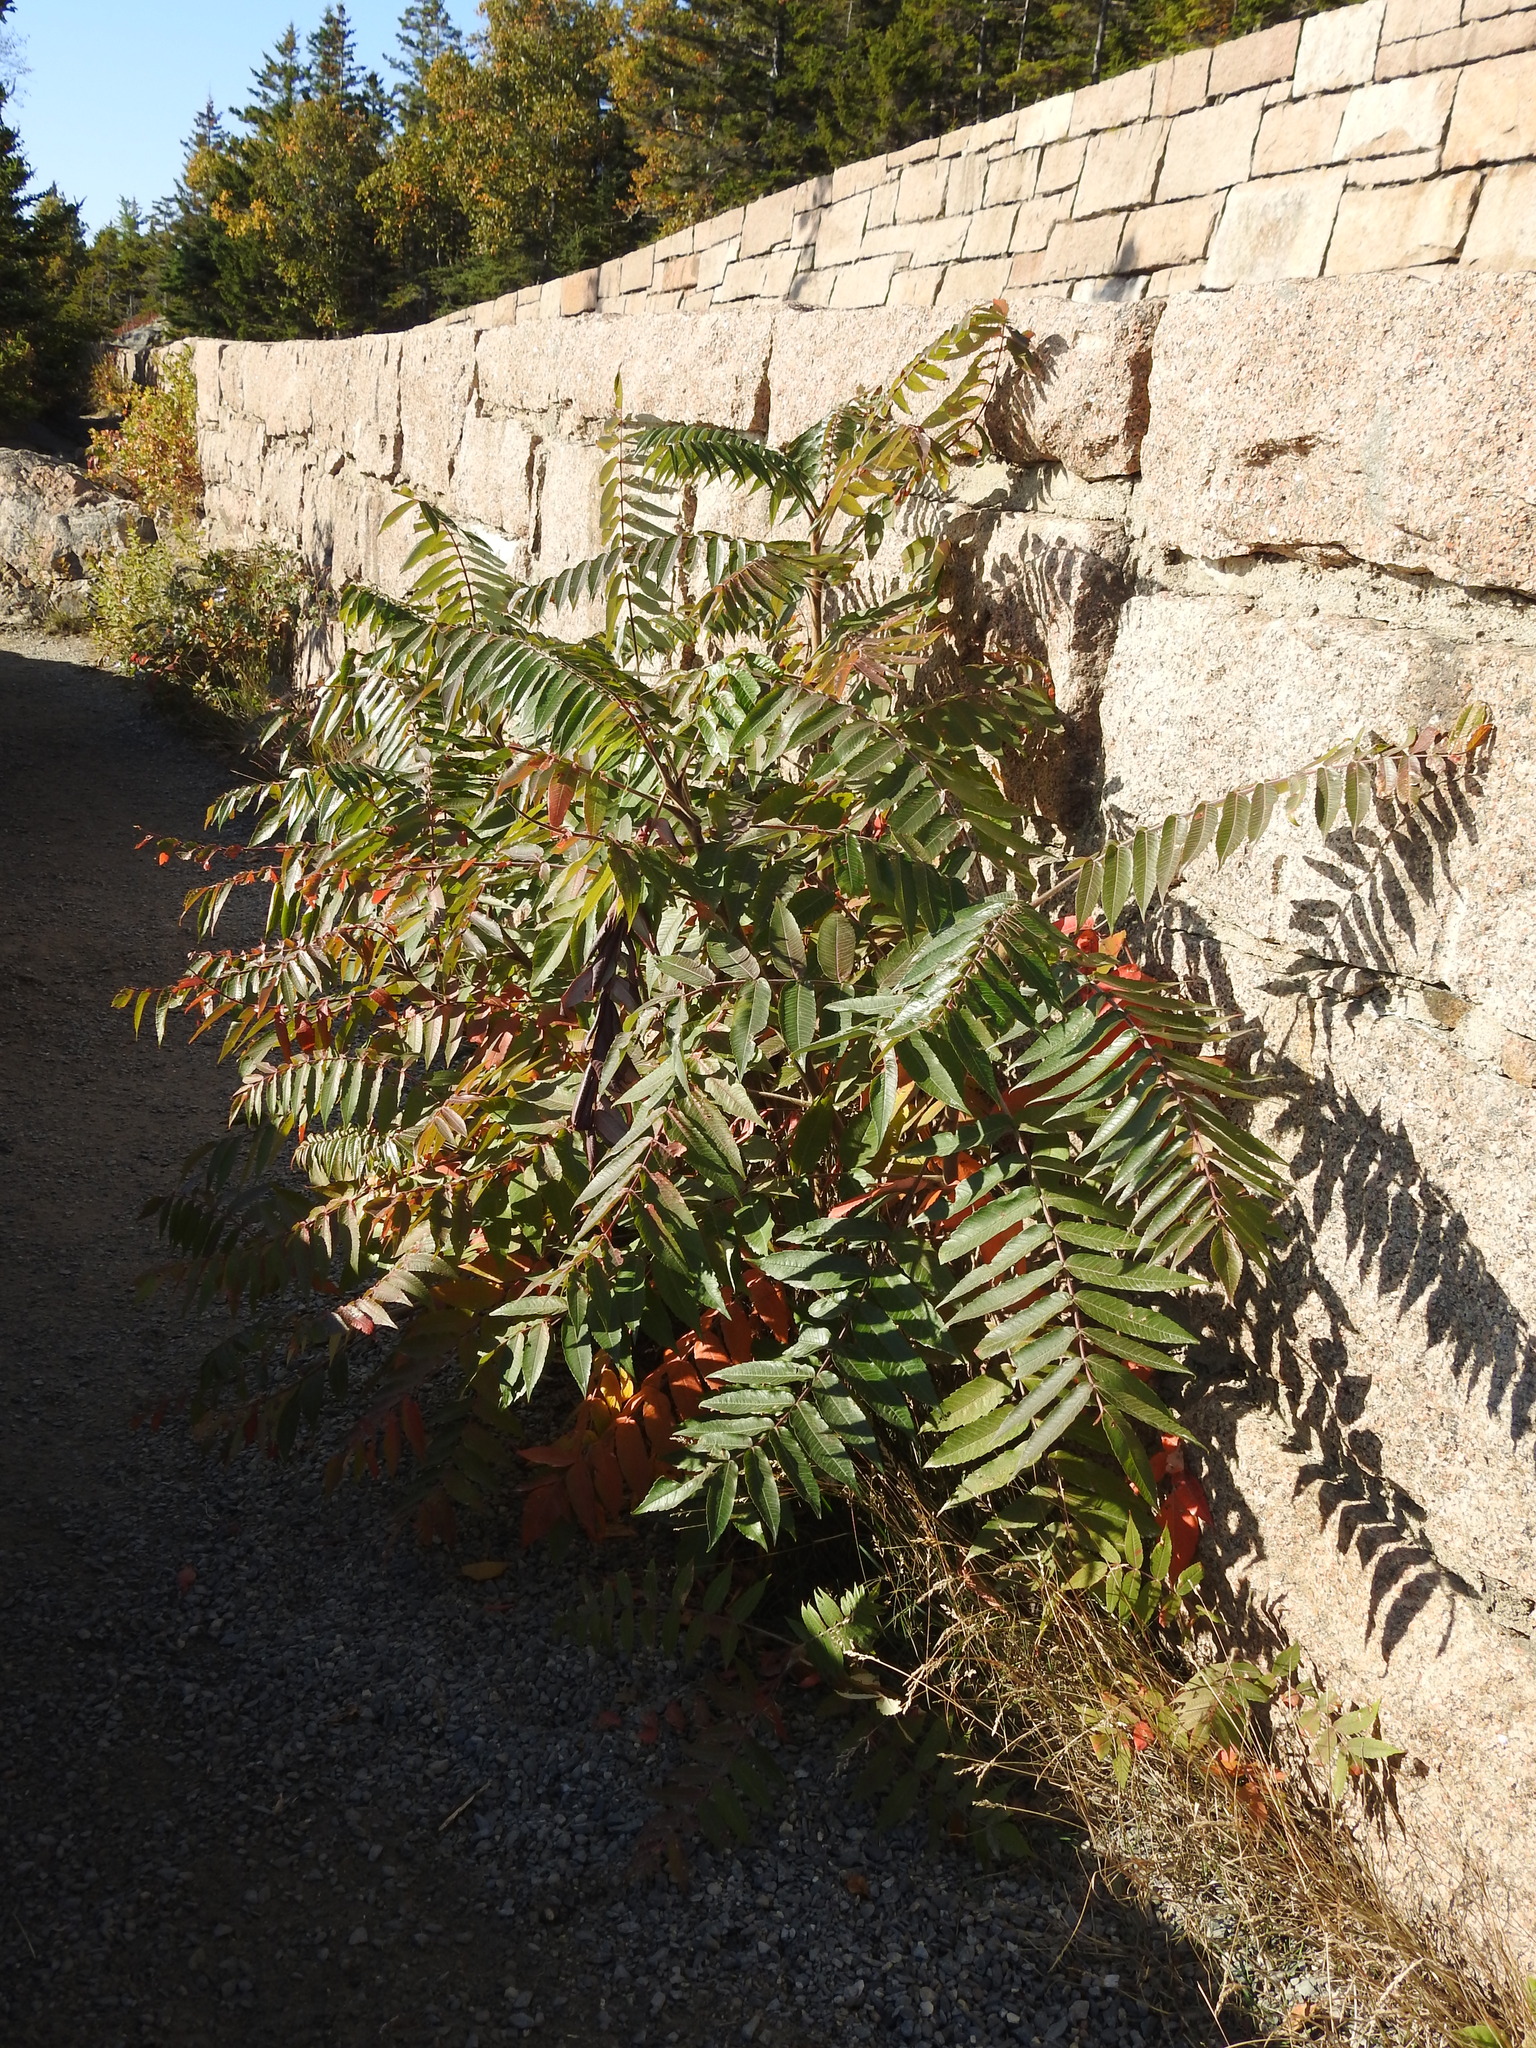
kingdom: Plantae
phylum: Tracheophyta
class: Magnoliopsida
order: Sapindales
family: Anacardiaceae
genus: Rhus
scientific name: Rhus typhina
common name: Staghorn sumac
